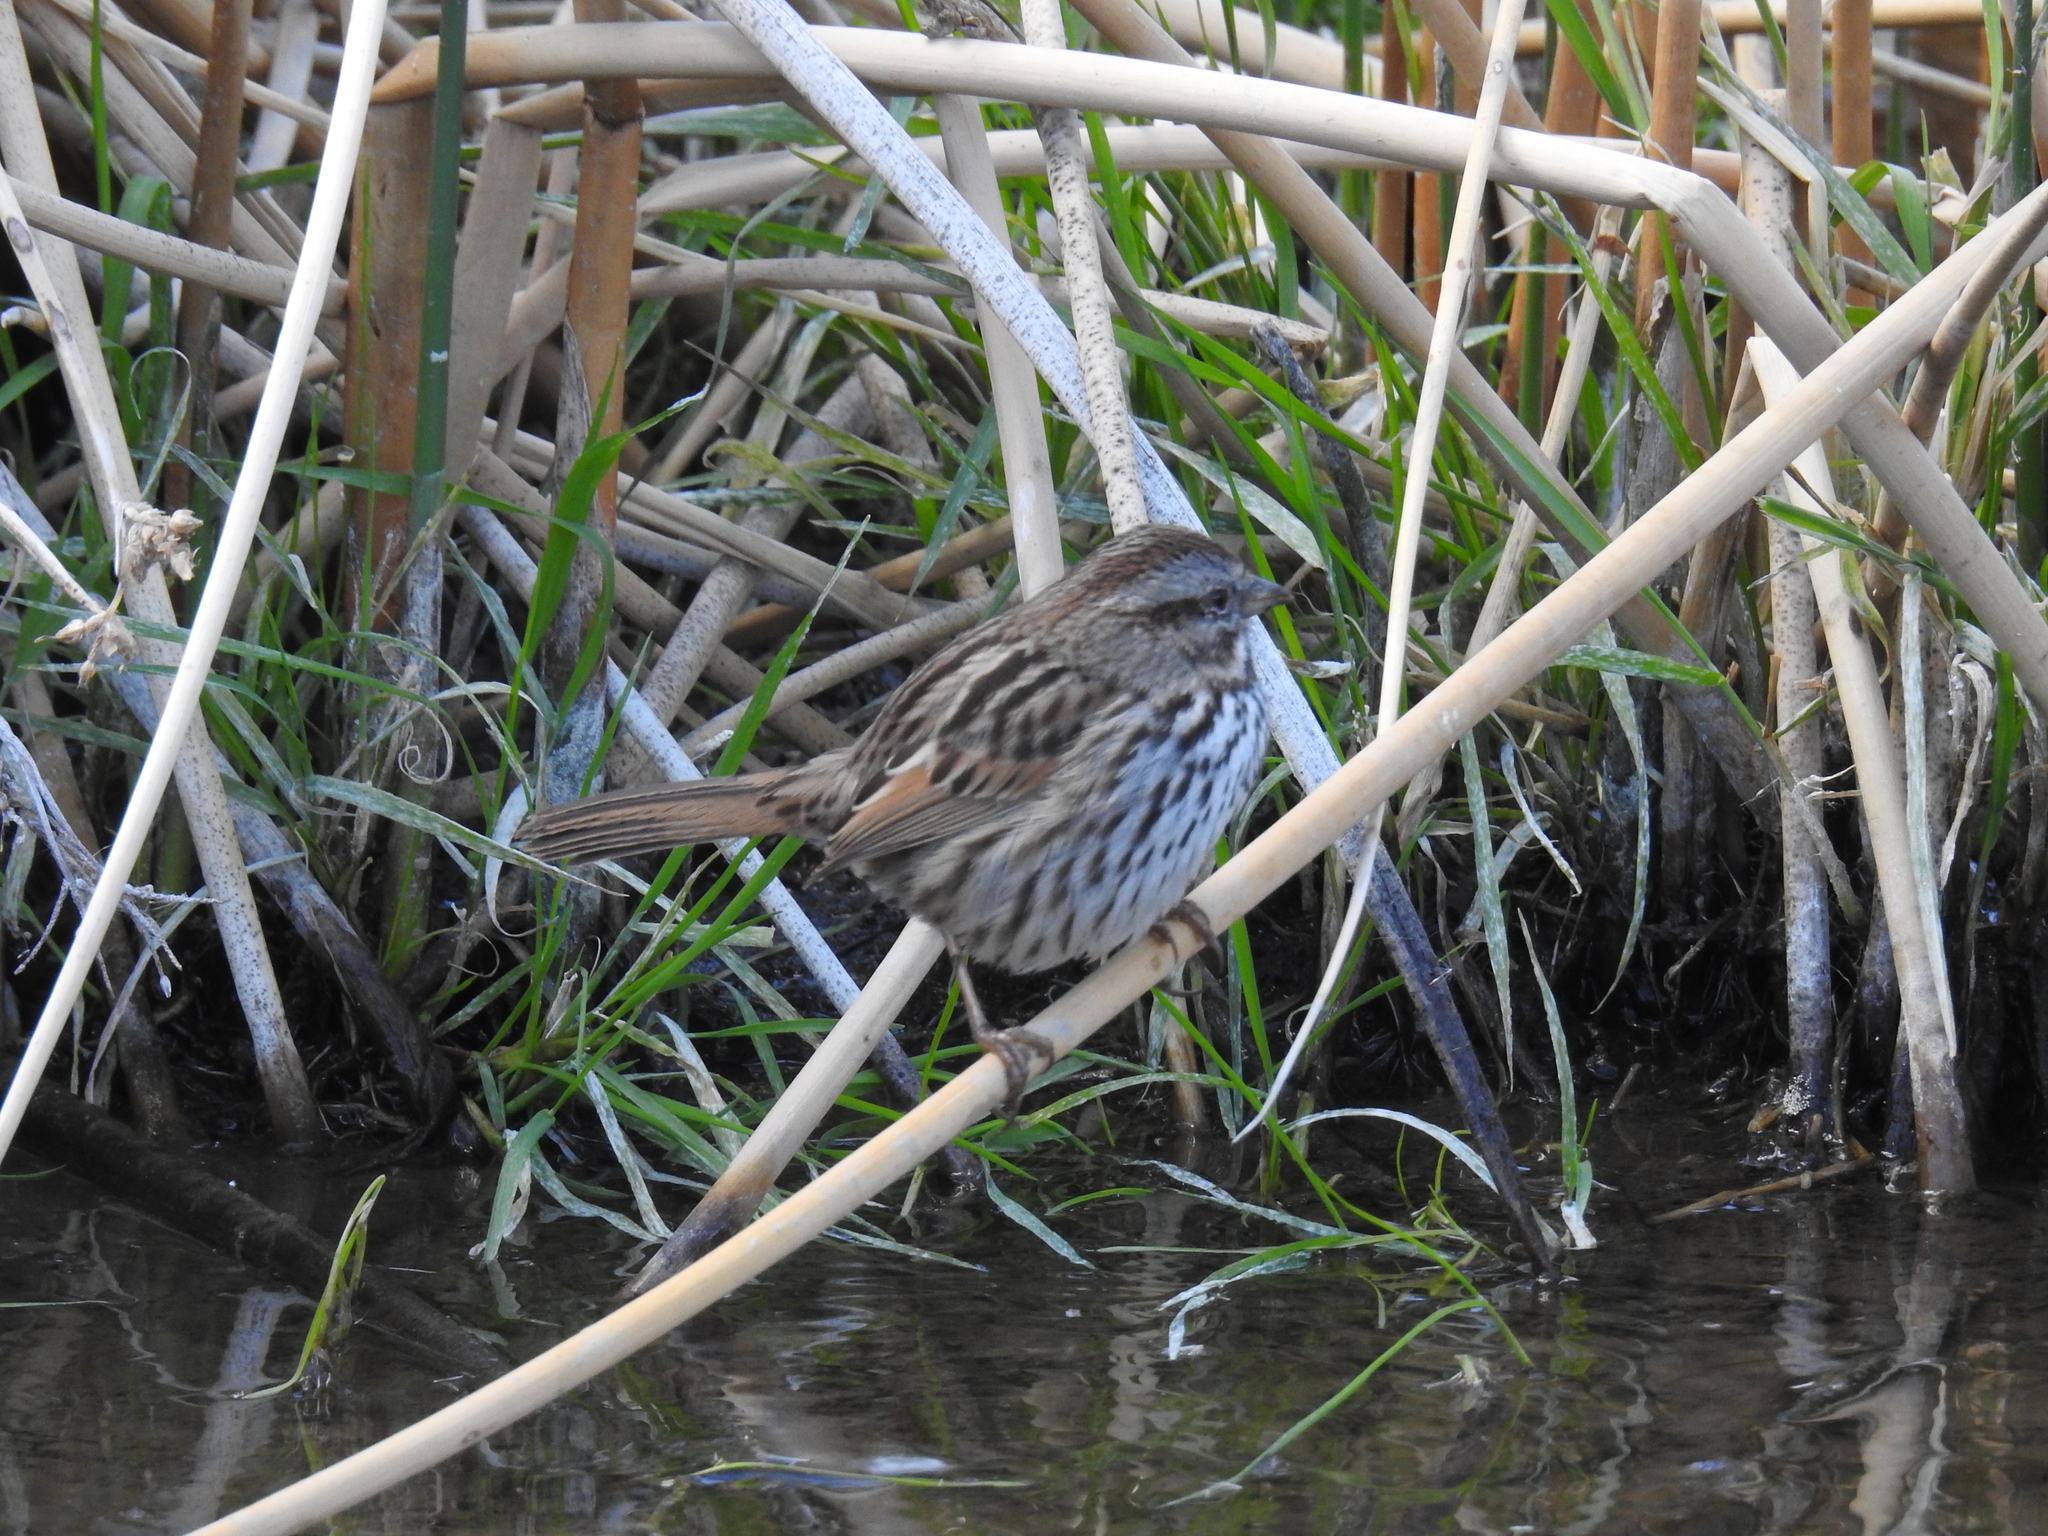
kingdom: Animalia
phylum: Chordata
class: Aves
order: Passeriformes
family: Passerellidae
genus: Melospiza
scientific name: Melospiza melodia
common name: Song sparrow
